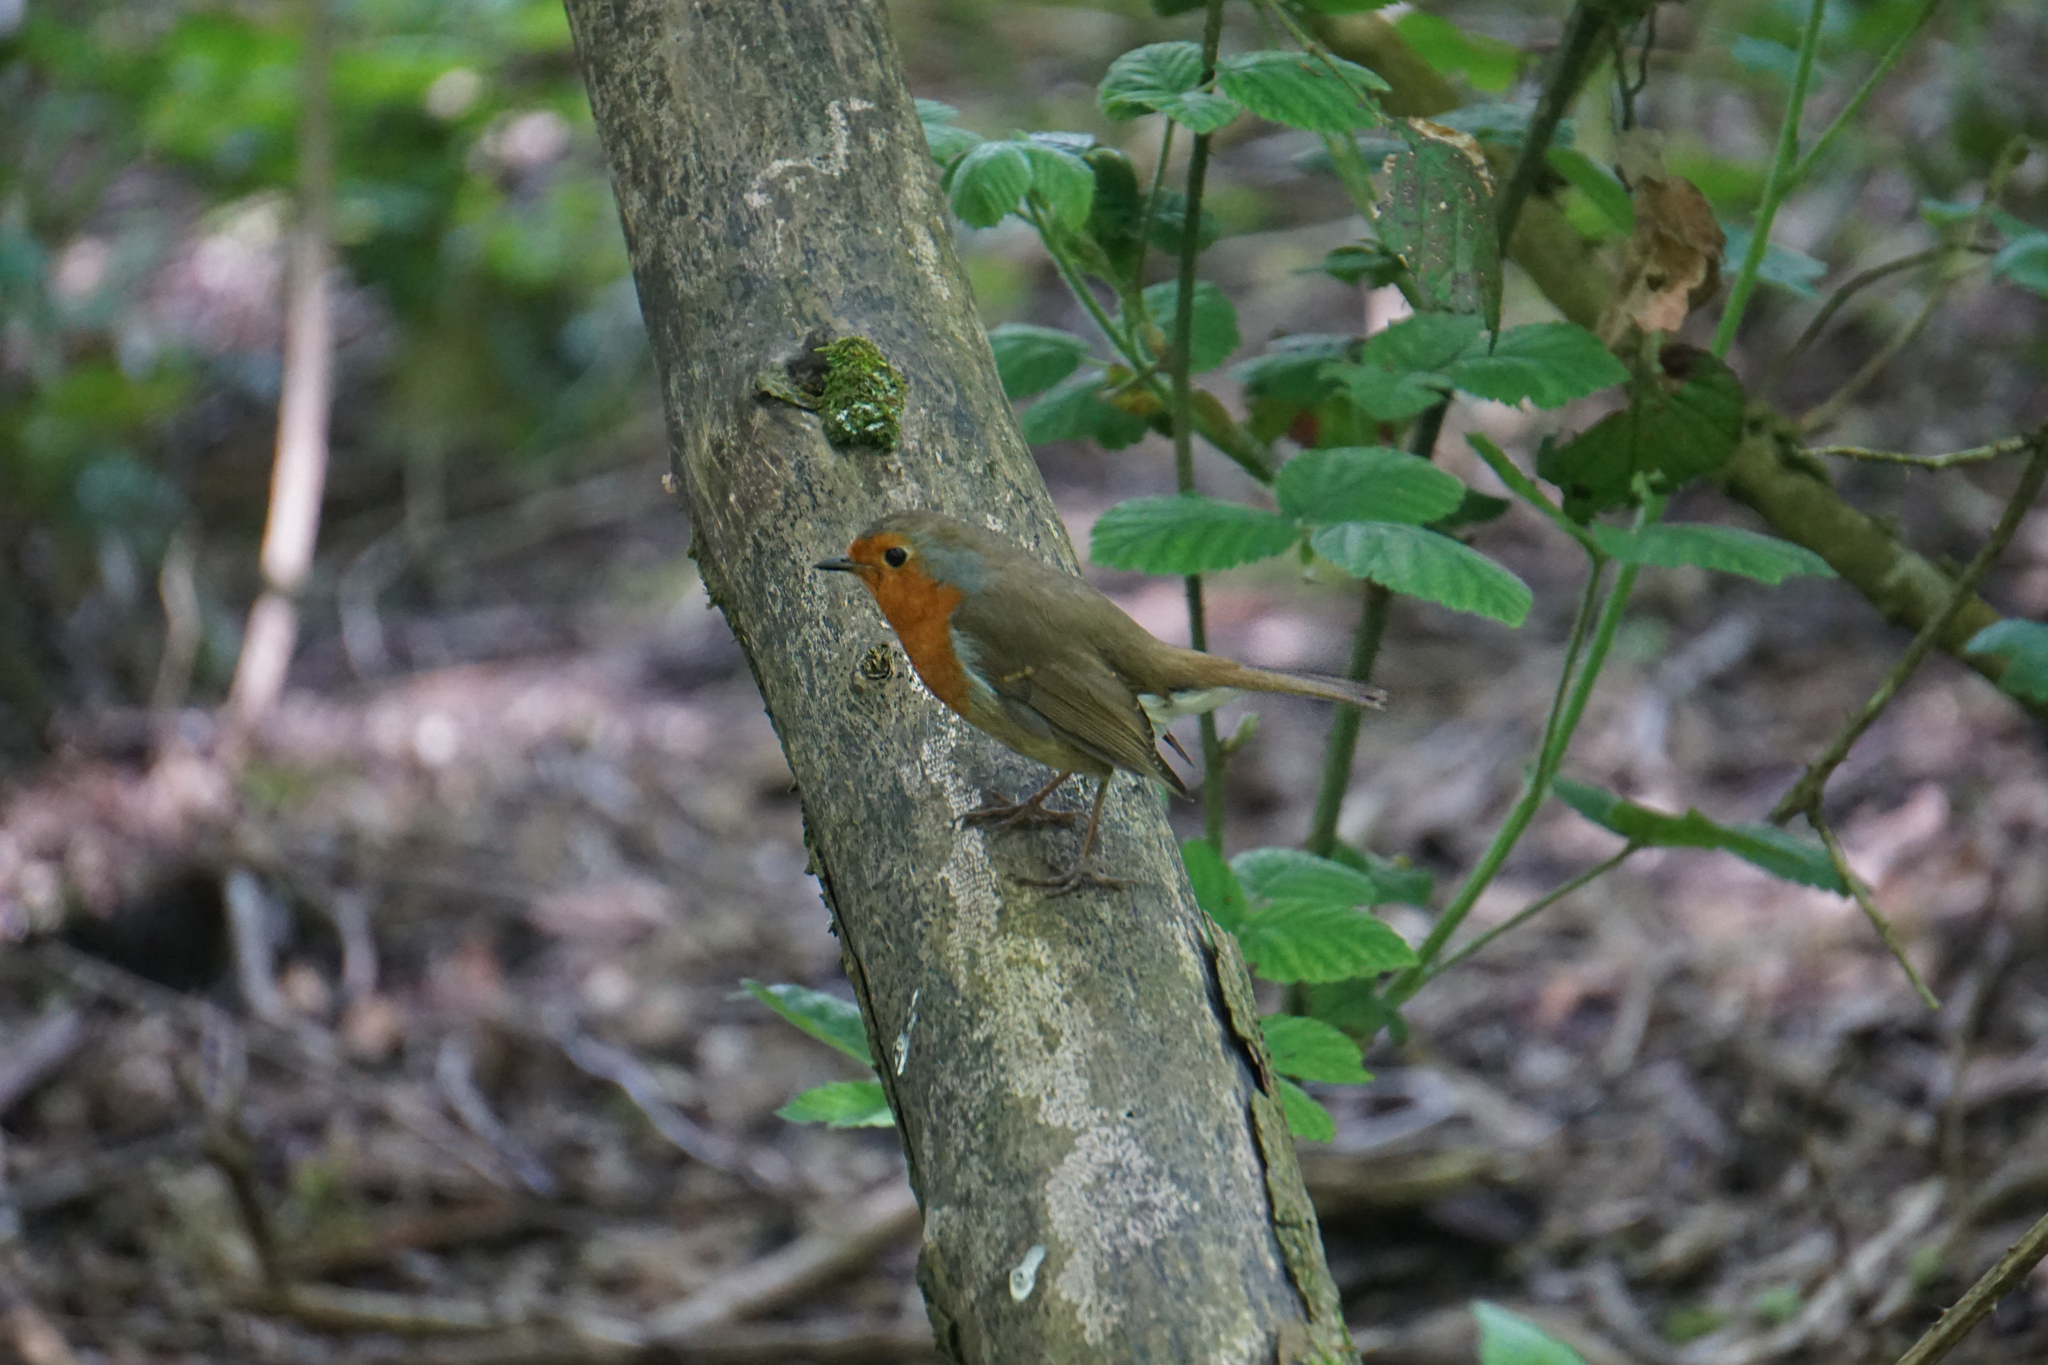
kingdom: Animalia
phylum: Chordata
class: Aves
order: Passeriformes
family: Muscicapidae
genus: Erithacus
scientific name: Erithacus rubecula
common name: European robin
